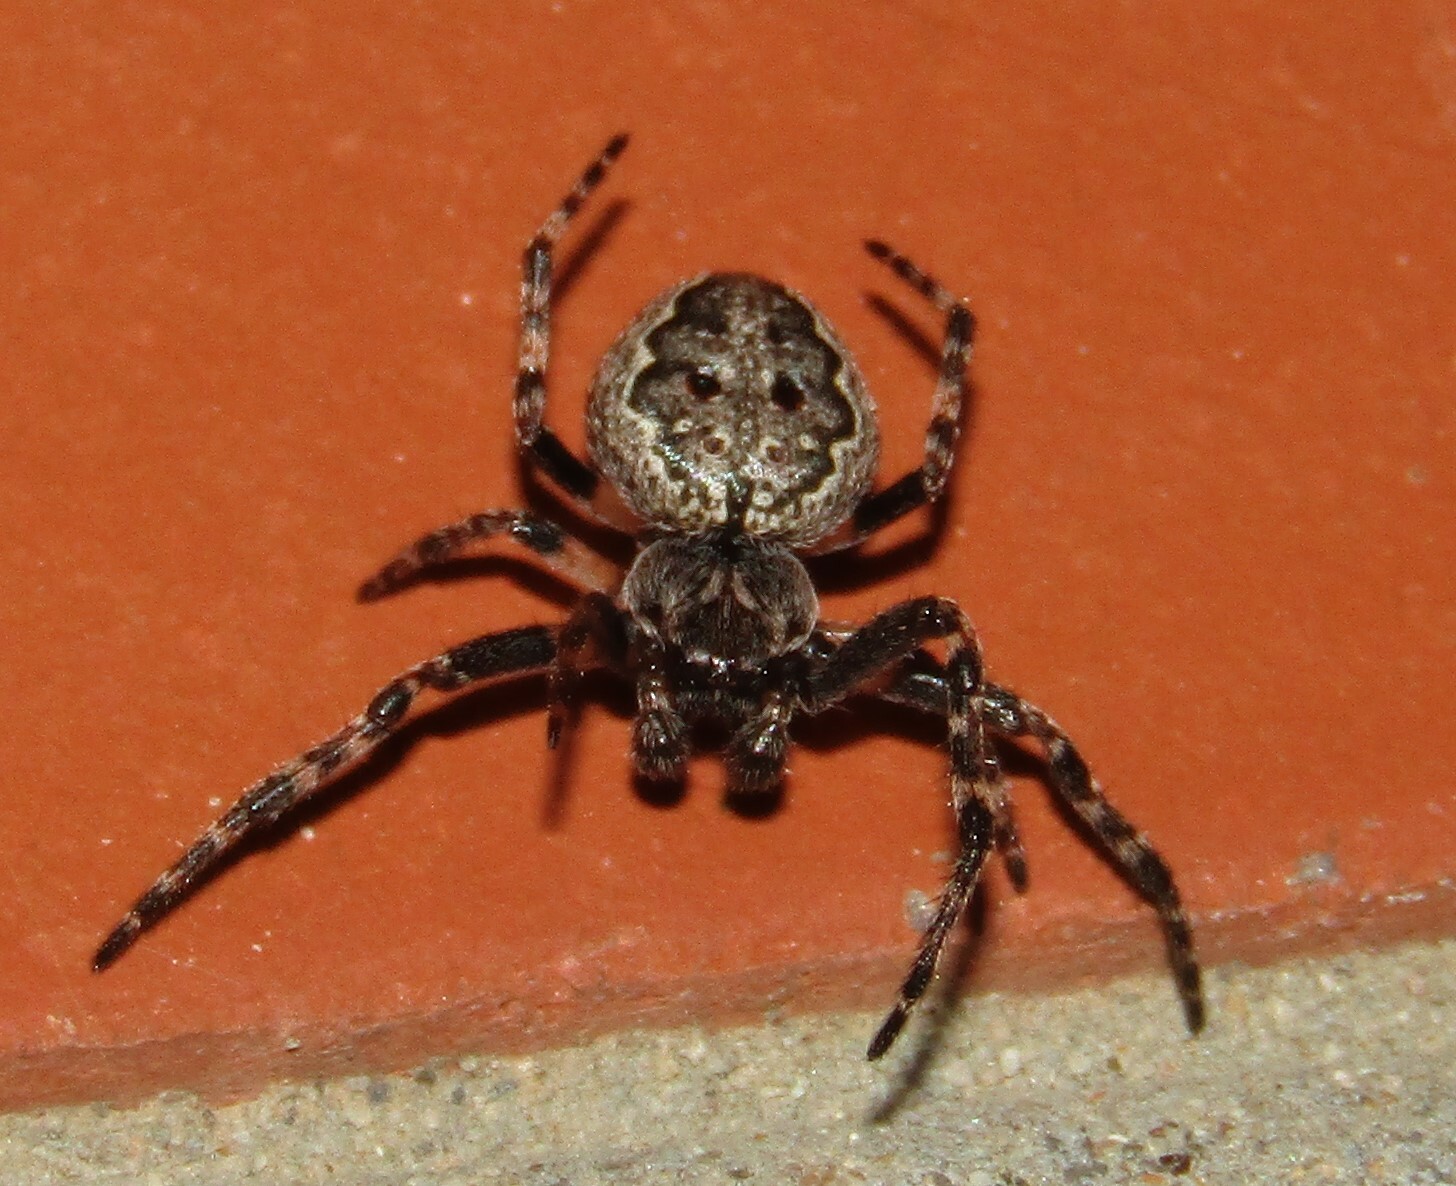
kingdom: Animalia
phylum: Arthropoda
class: Arachnida
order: Araneae
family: Araneidae
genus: Nuctenea
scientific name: Nuctenea umbratica
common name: Toad spider
